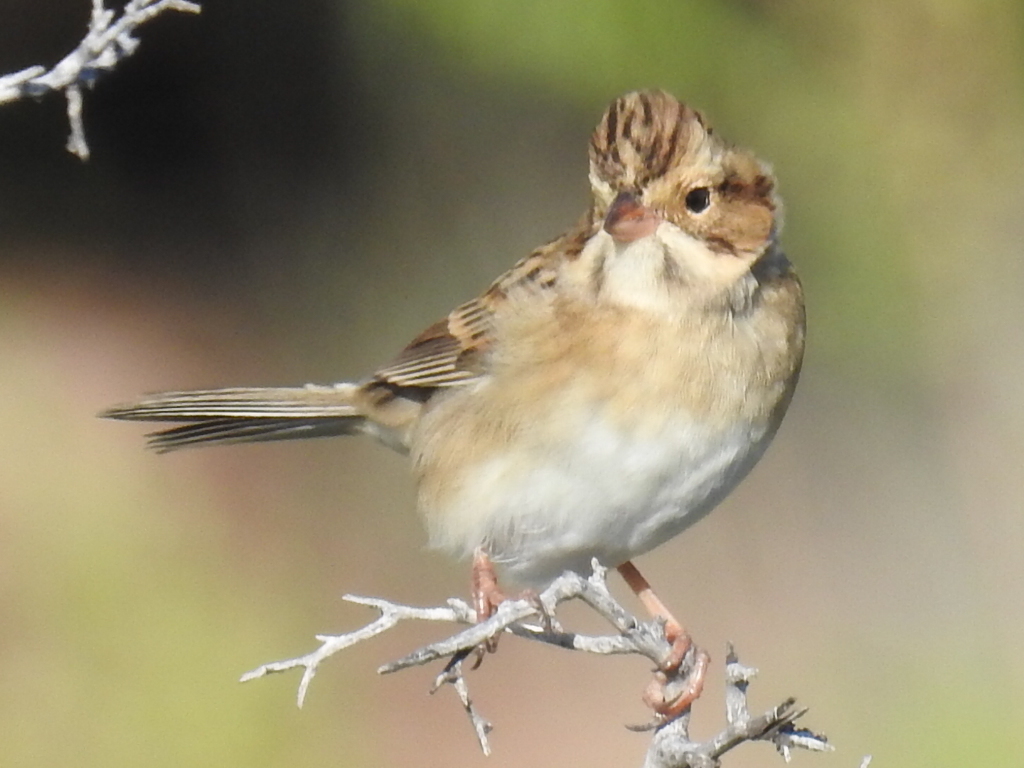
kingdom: Animalia
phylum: Chordata
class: Aves
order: Passeriformes
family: Passerellidae
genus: Spizella
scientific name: Spizella pallida
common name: Clay-colored sparrow
